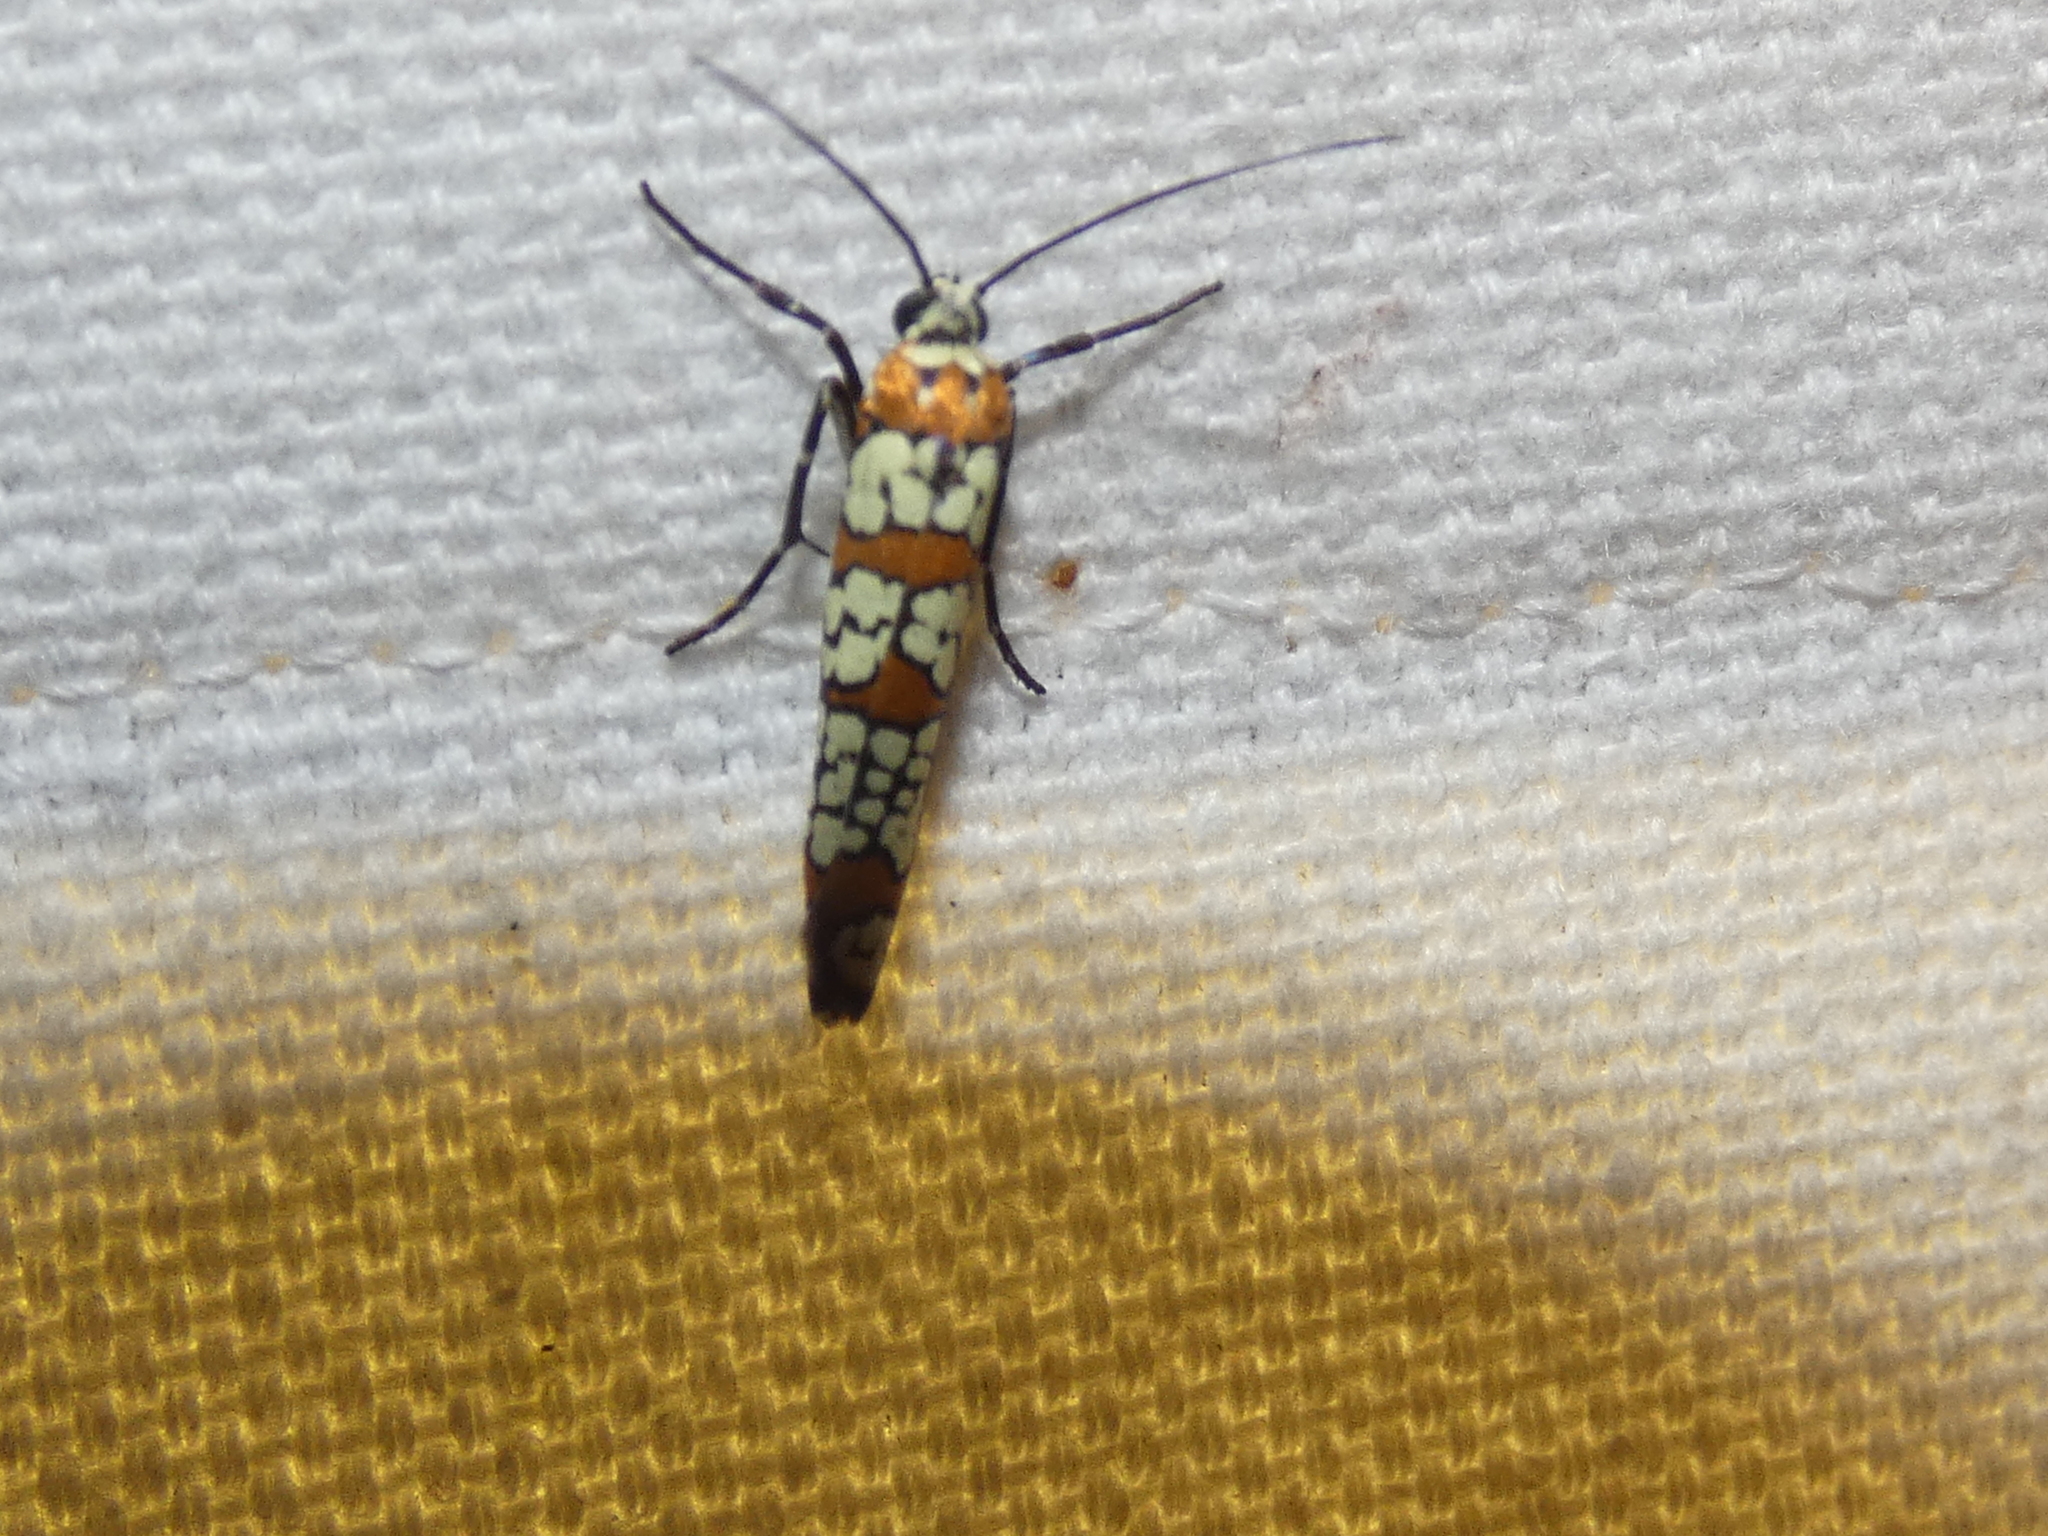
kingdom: Animalia
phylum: Arthropoda
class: Insecta
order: Lepidoptera
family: Attevidae
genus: Atteva
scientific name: Atteva punctella
